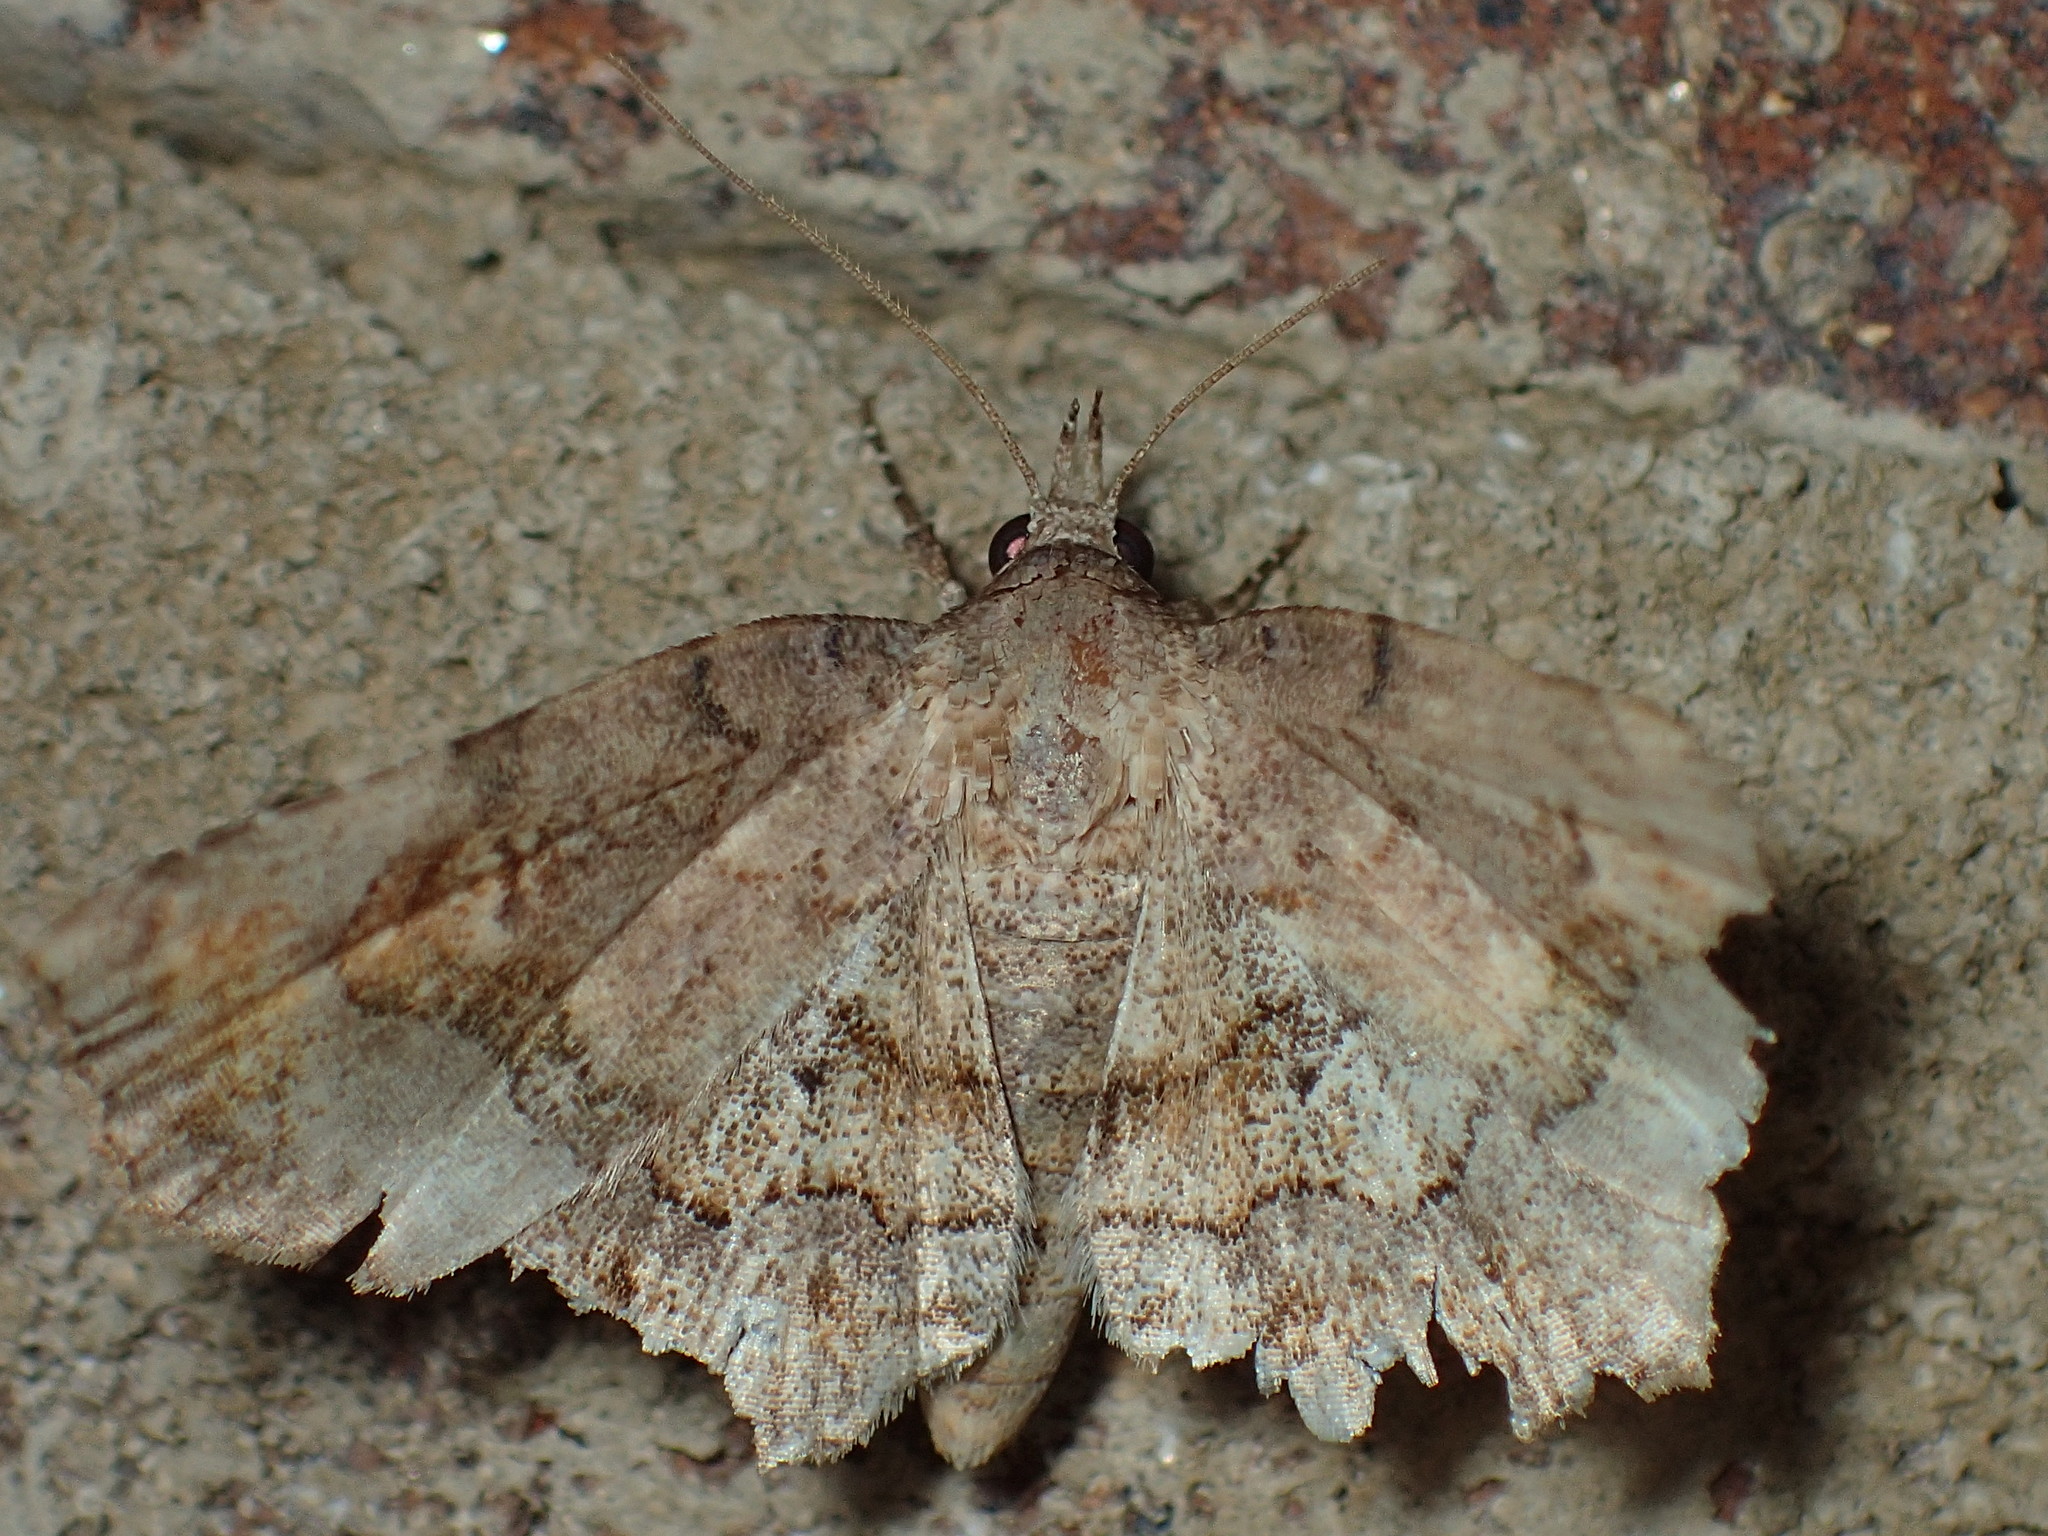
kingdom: Animalia
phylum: Arthropoda
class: Insecta
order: Lepidoptera
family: Erebidae
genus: Pangrapta
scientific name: Pangrapta decoralis
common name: Decorated owlet
